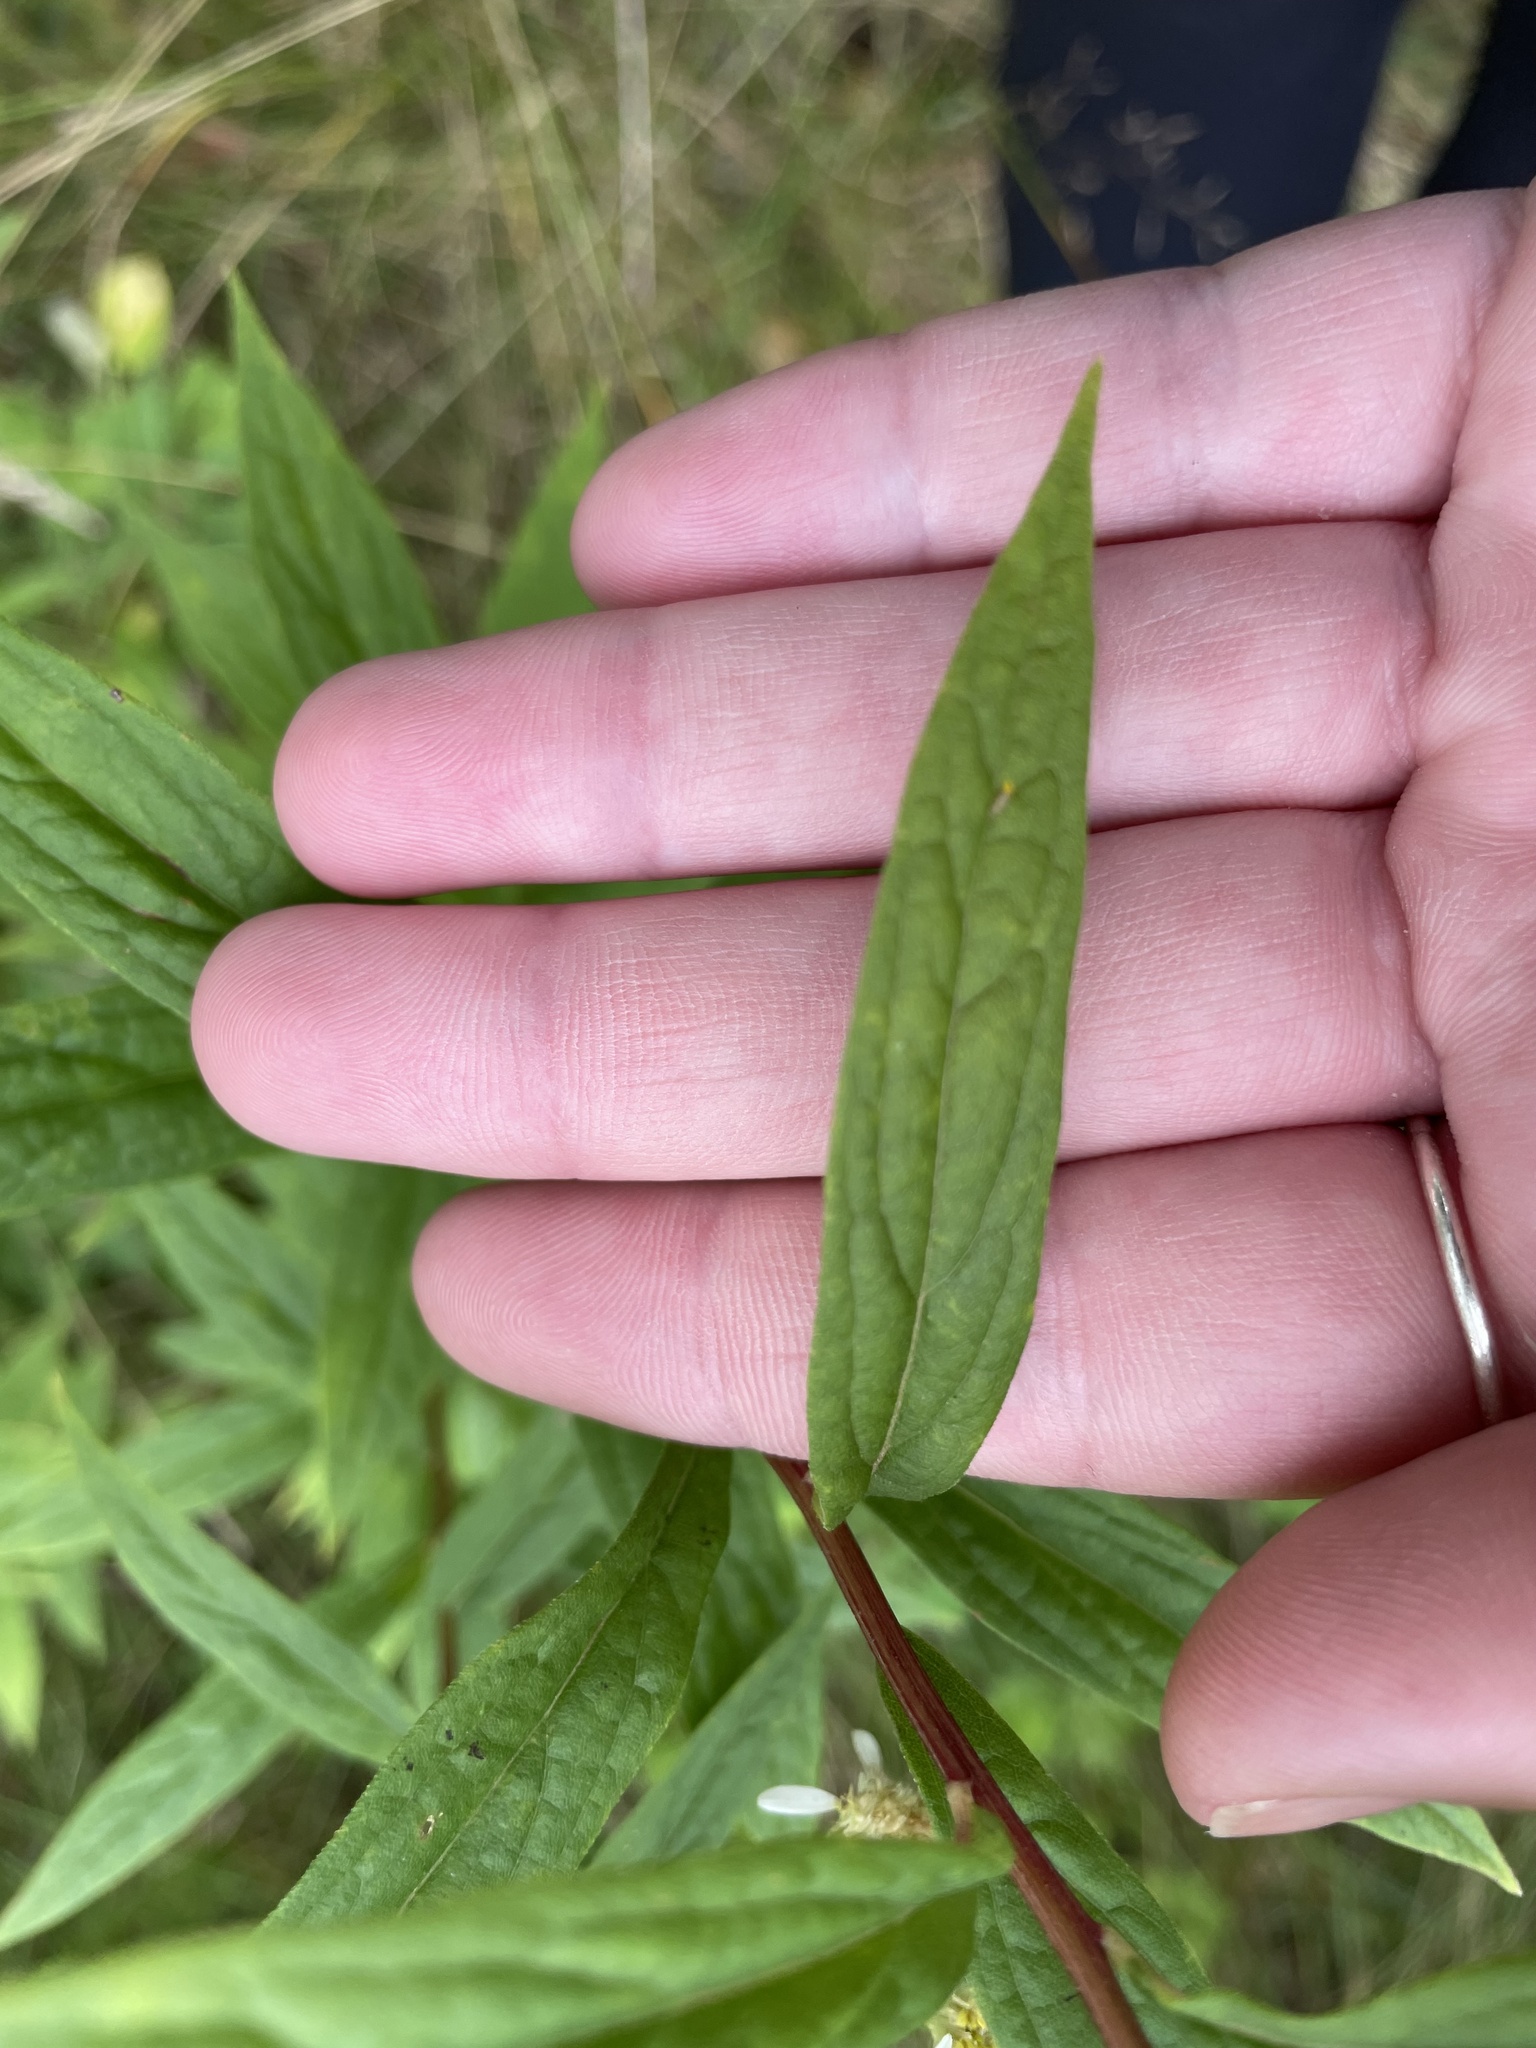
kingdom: Plantae
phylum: Tracheophyta
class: Magnoliopsida
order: Asterales
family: Asteraceae
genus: Doellingeria
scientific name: Doellingeria umbellata
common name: Flat-top white aster
